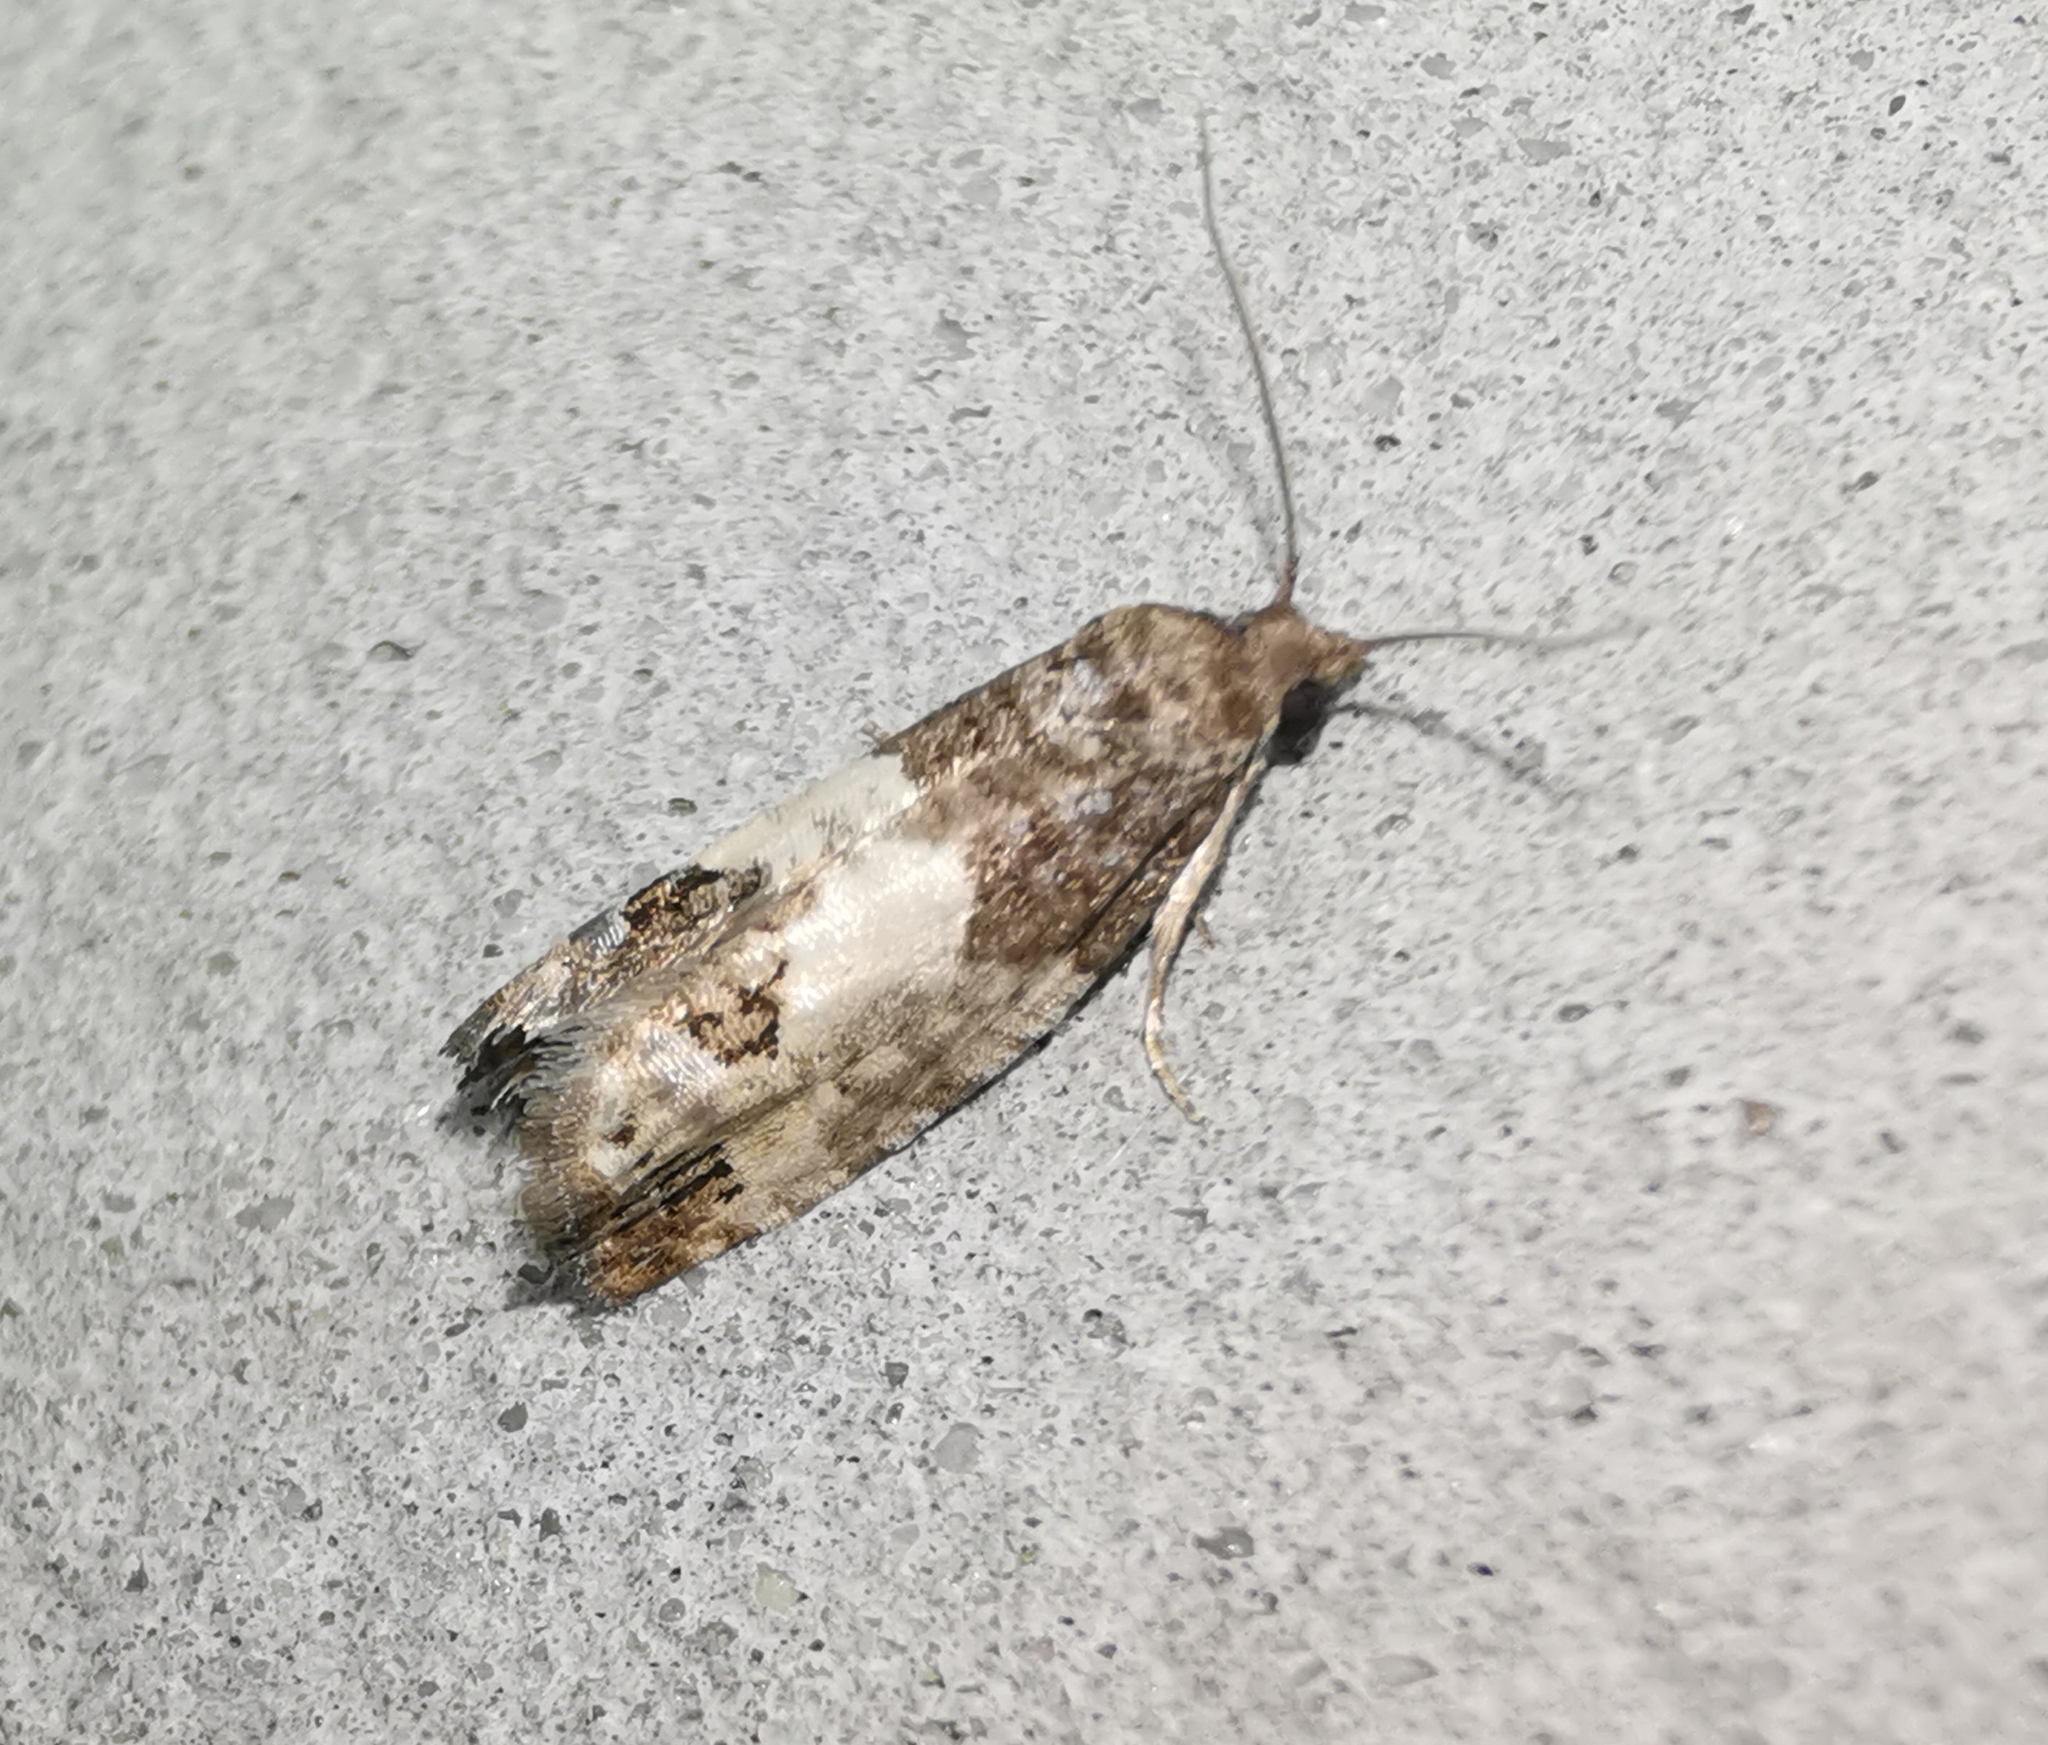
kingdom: Animalia
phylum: Arthropoda
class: Insecta
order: Lepidoptera
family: Tortricidae
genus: Spilonota
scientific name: Spilonota ocellana
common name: Bud moth
